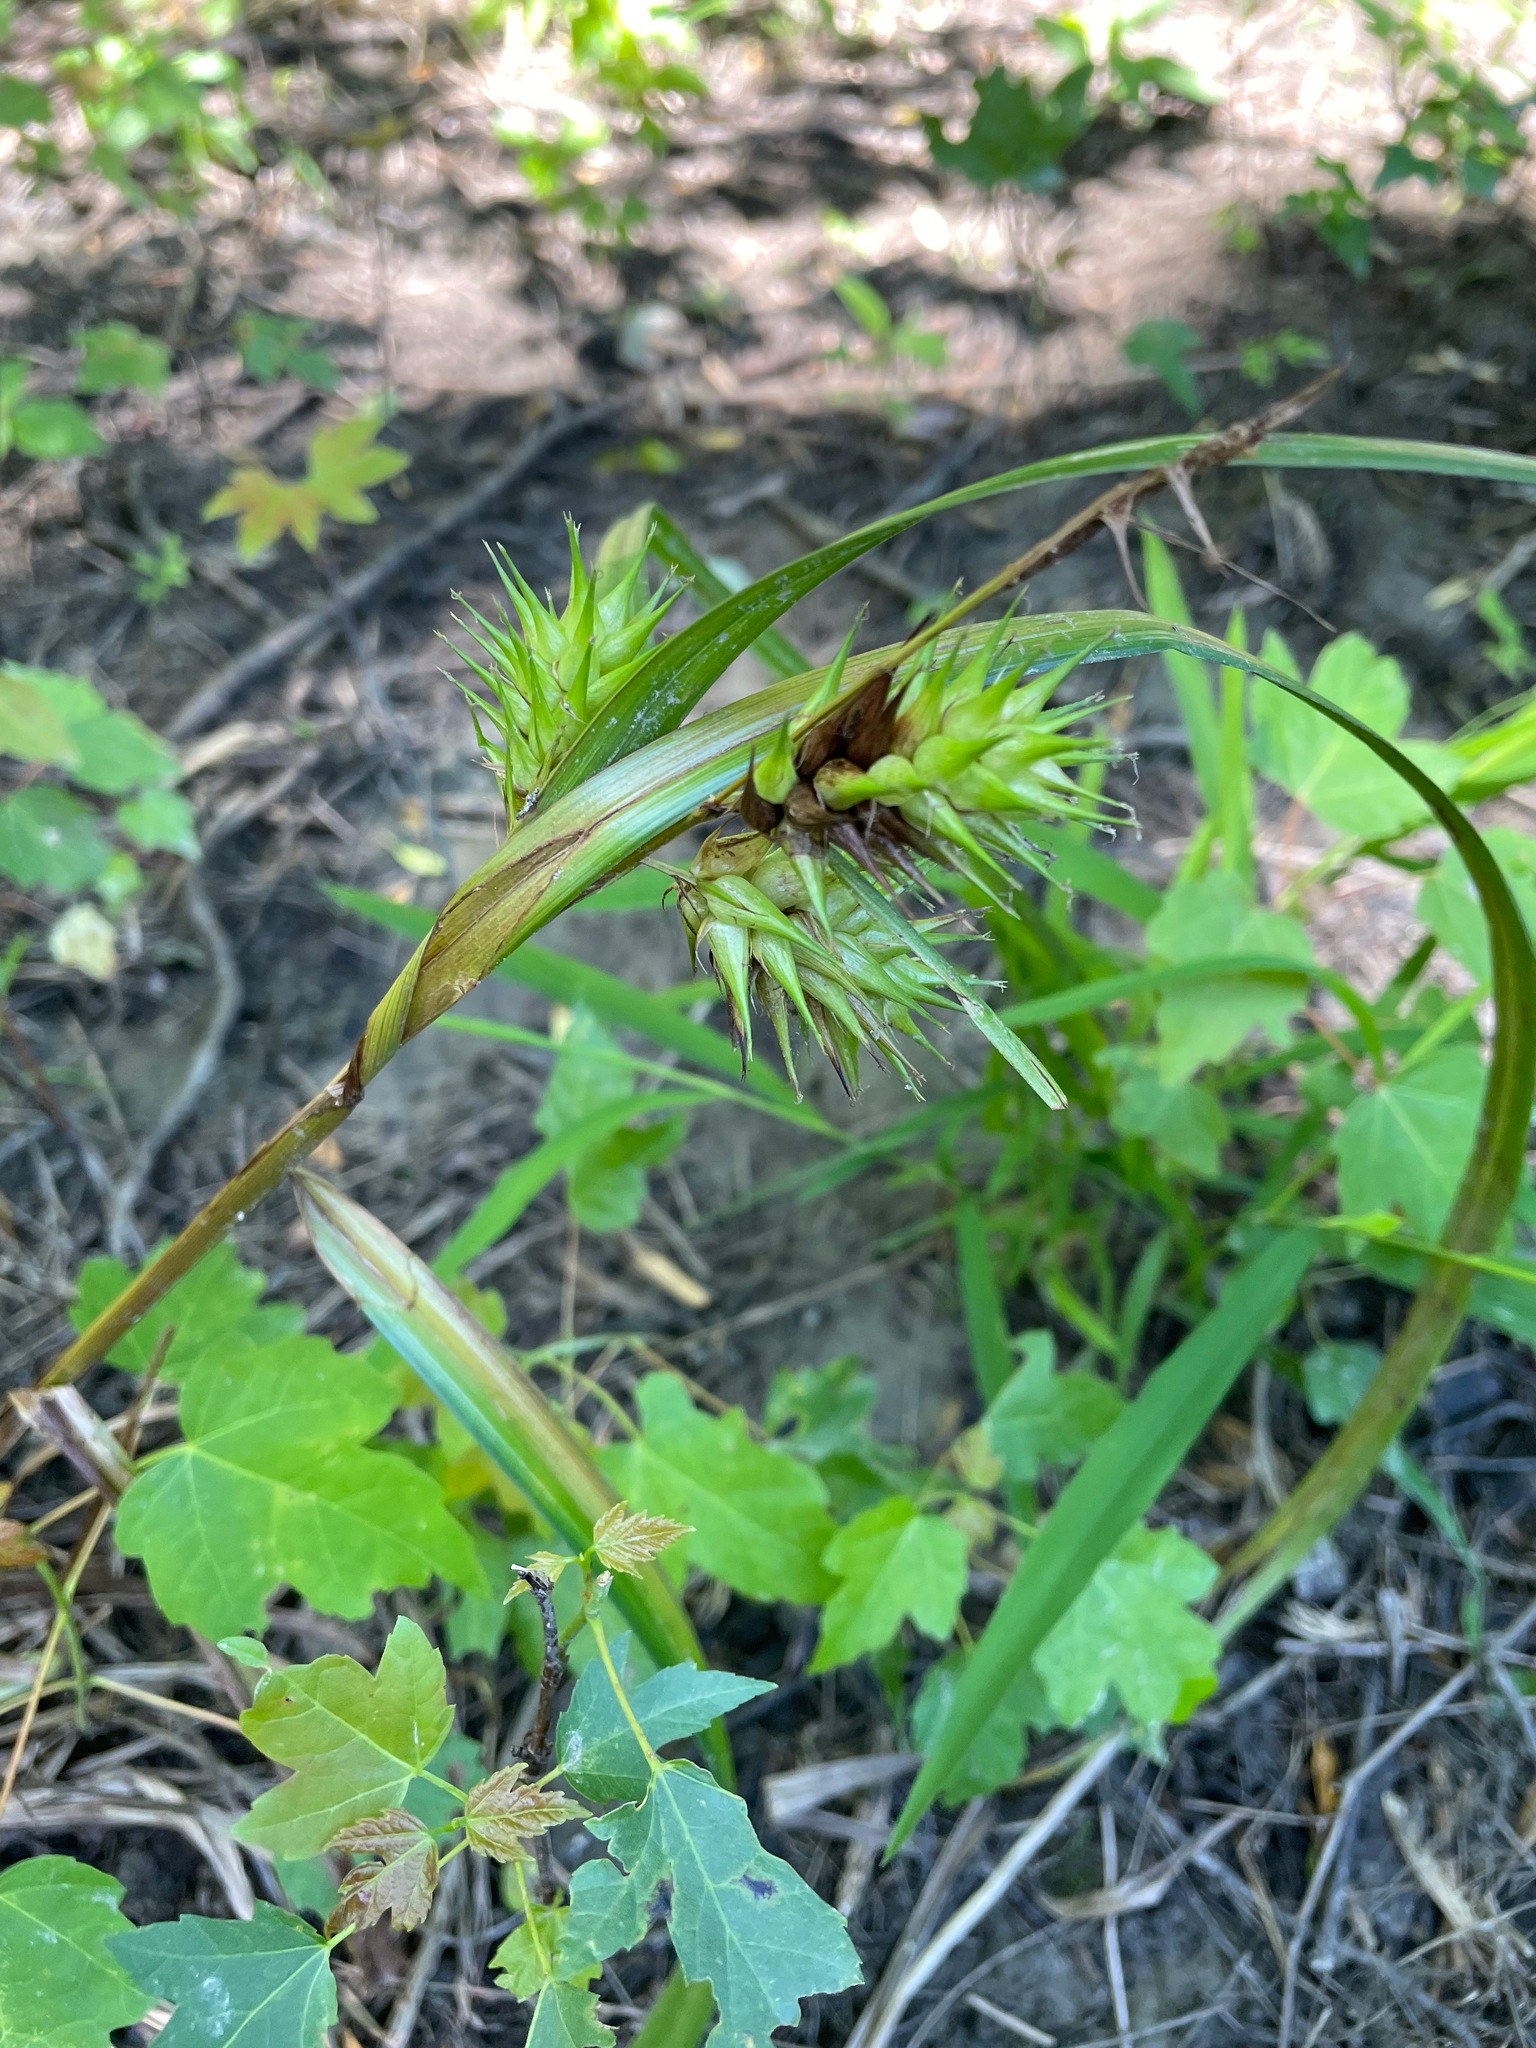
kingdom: Plantae
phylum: Tracheophyta
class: Liliopsida
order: Poales
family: Cyperaceae
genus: Carex
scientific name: Carex lupulina
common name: Hop sedge
